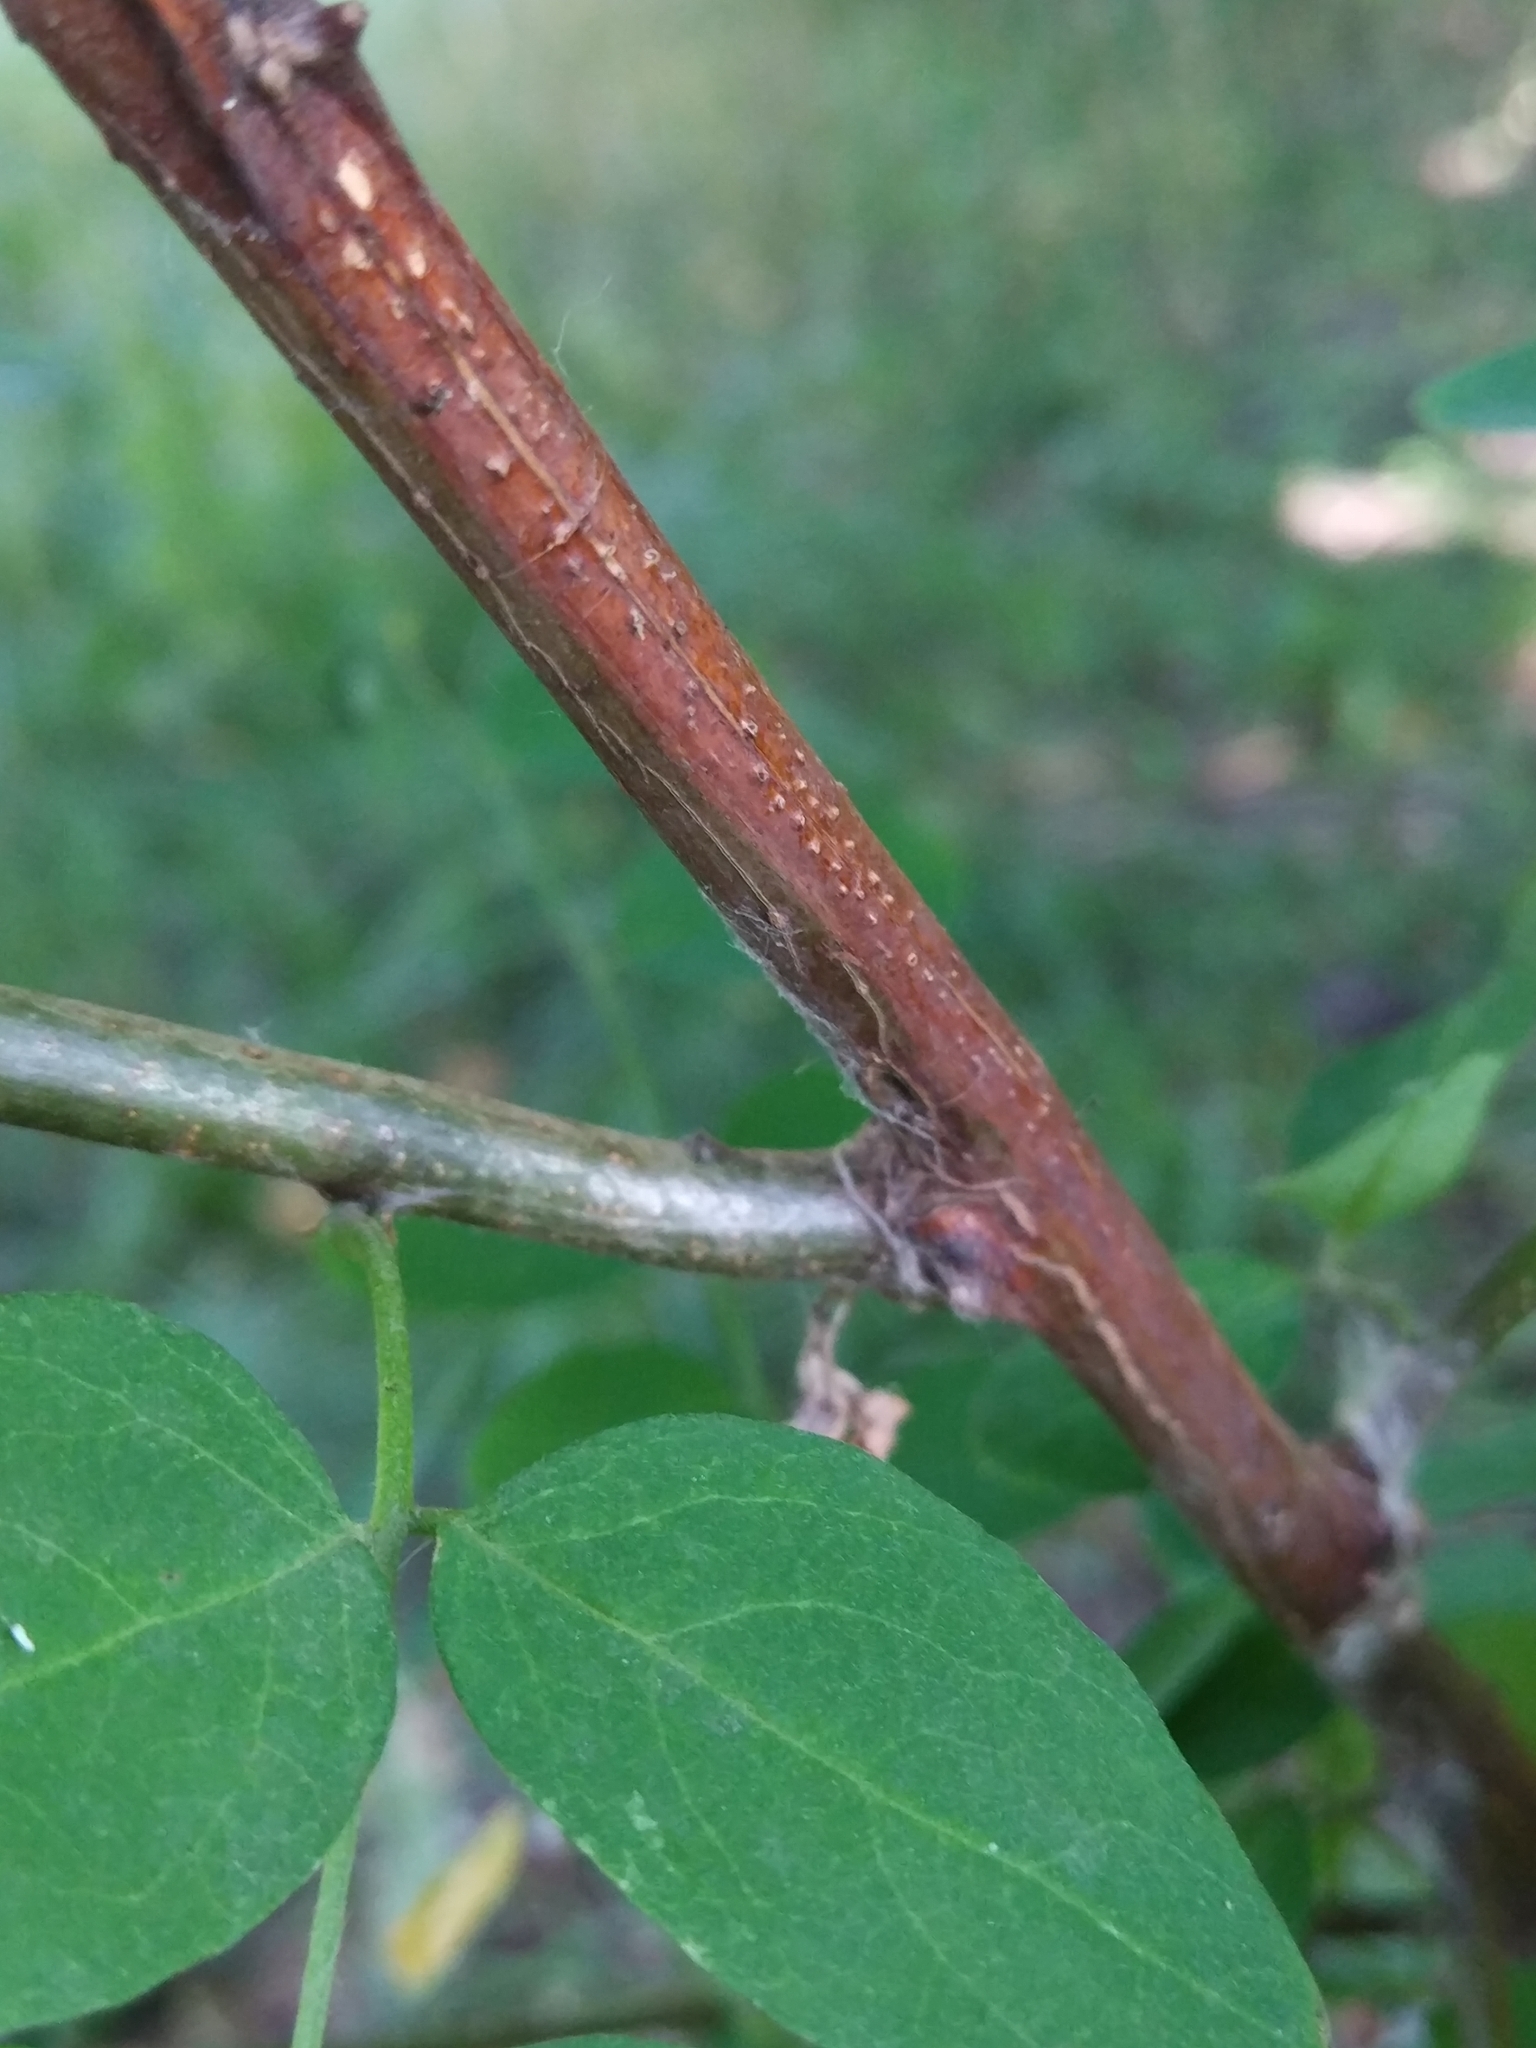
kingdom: Plantae
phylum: Tracheophyta
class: Magnoliopsida
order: Fabales
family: Fabaceae
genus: Caragana
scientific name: Caragana arborescens
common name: Siberian peashrub
